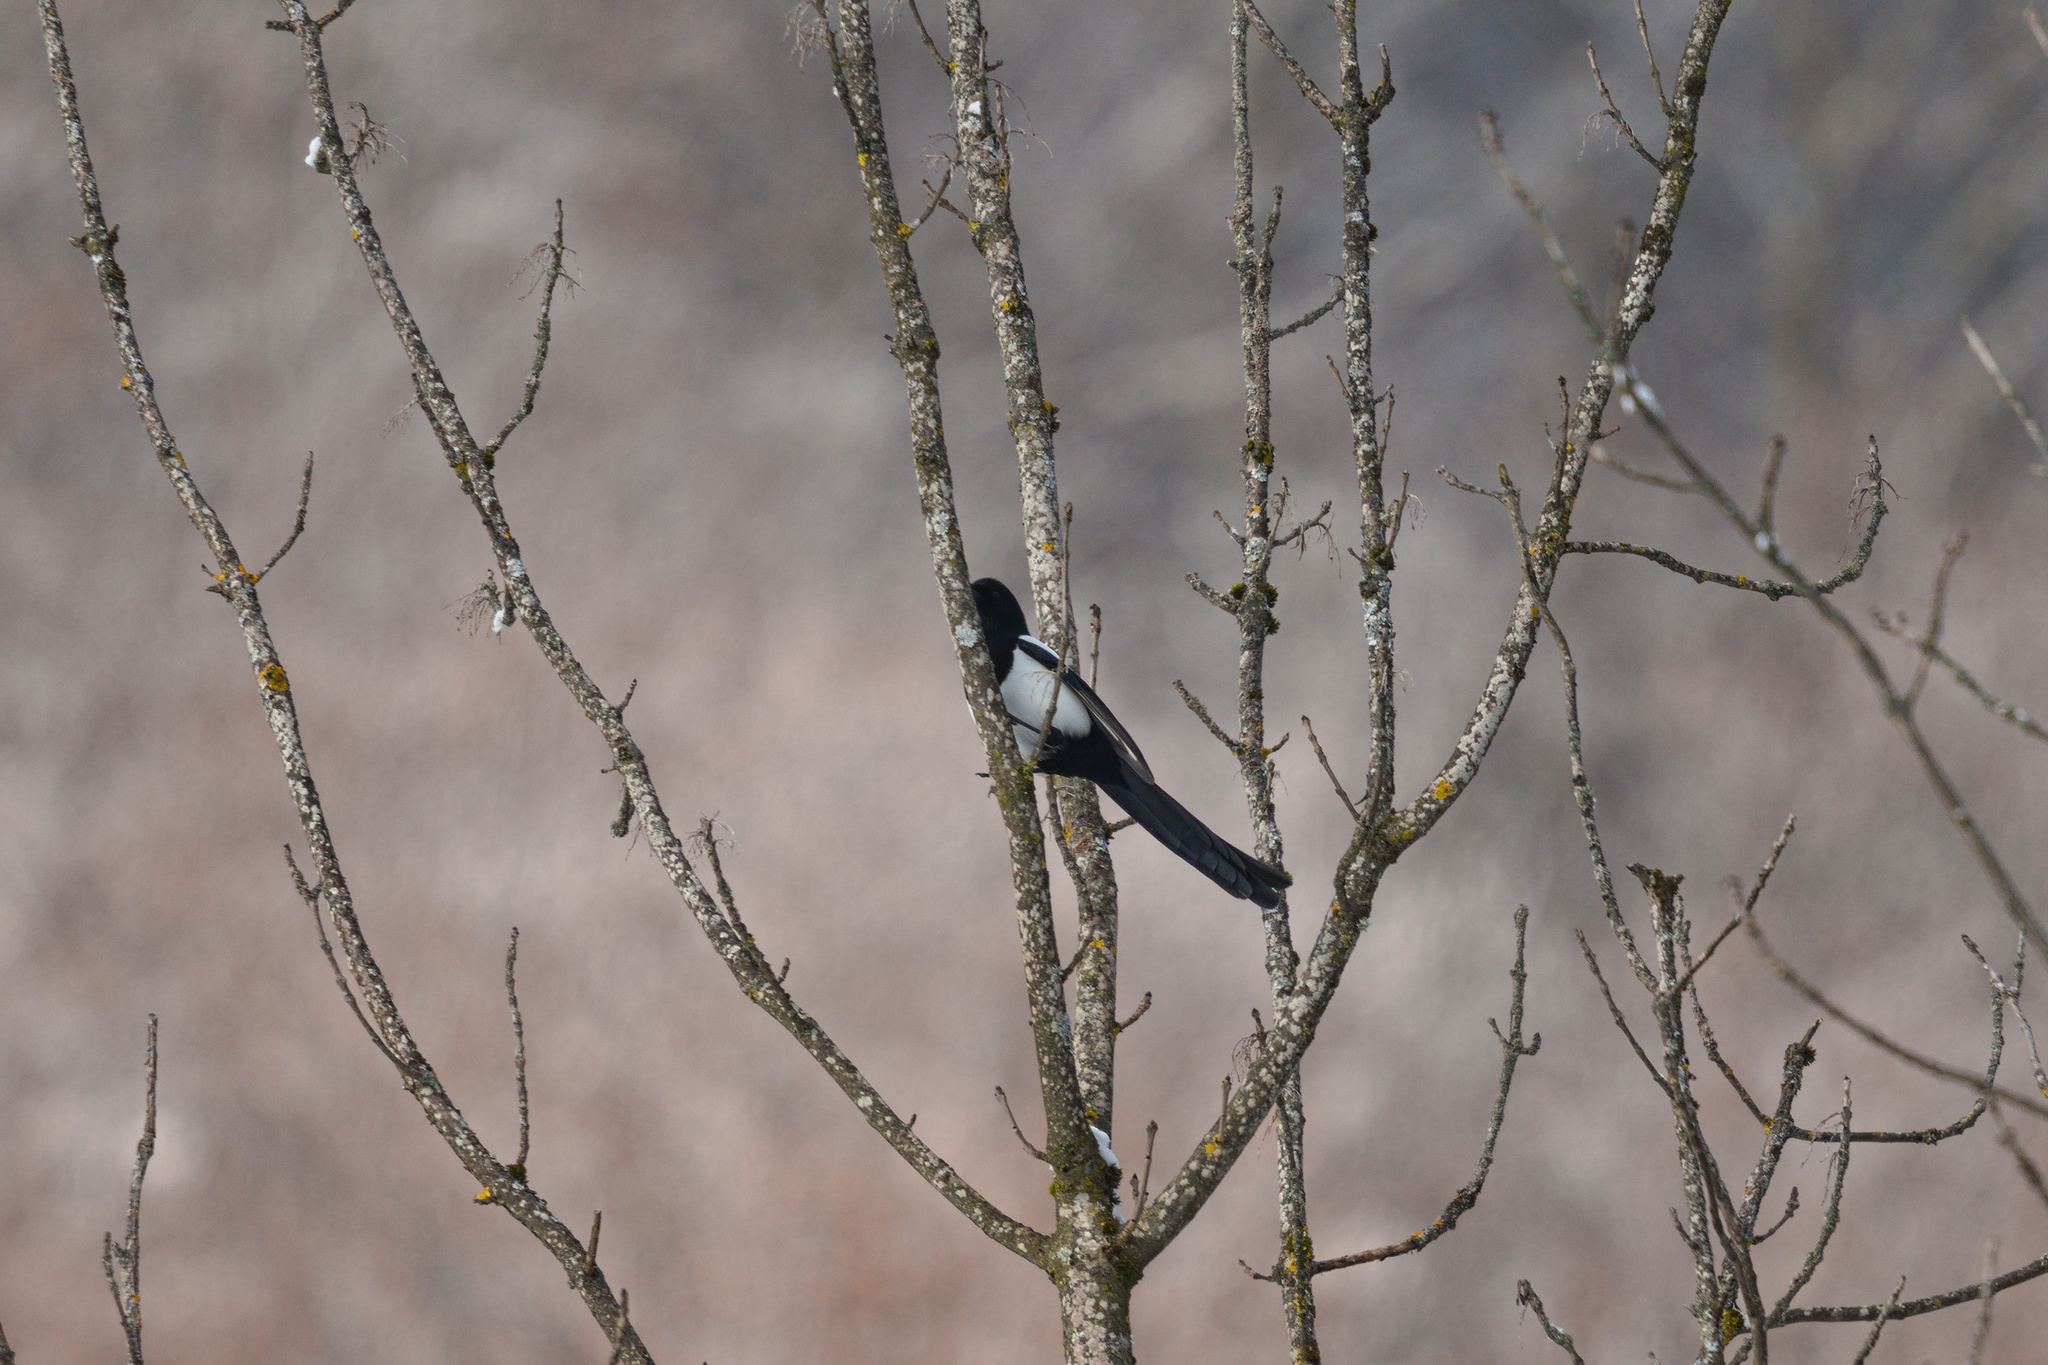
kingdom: Animalia
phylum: Chordata
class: Aves
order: Passeriformes
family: Corvidae
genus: Pica
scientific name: Pica pica
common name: Eurasian magpie
